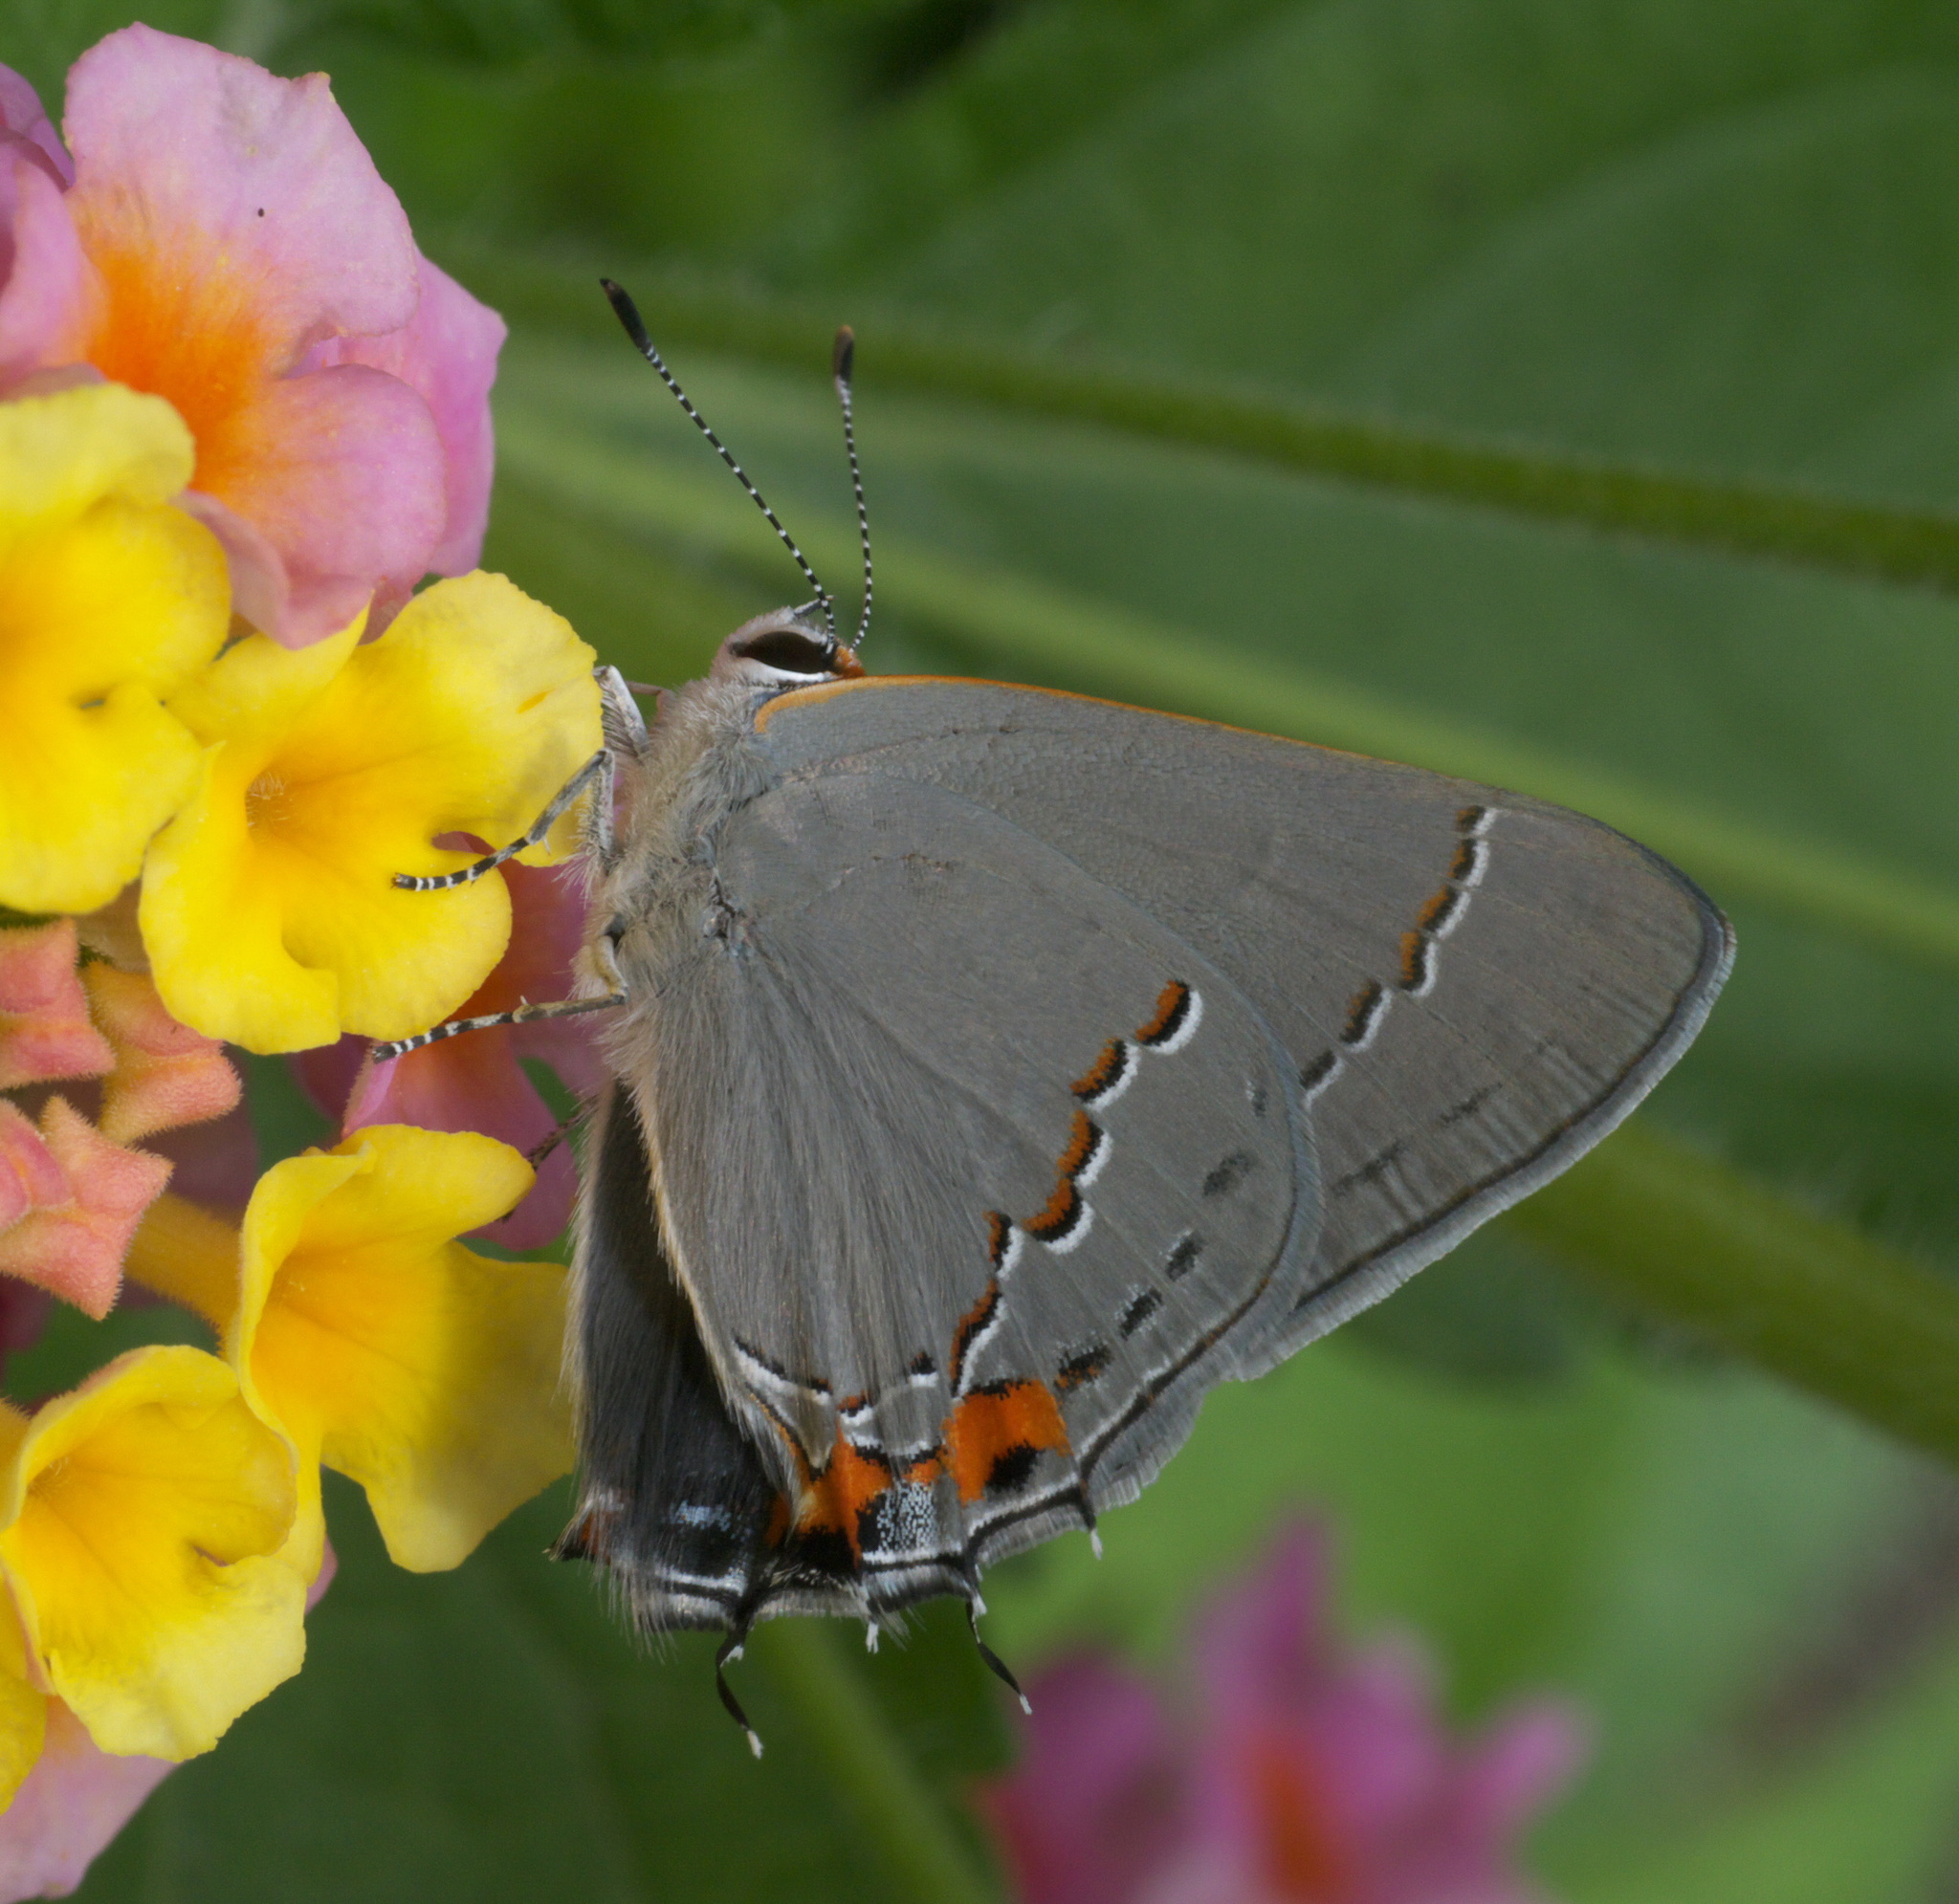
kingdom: Animalia
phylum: Arthropoda
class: Insecta
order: Lepidoptera
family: Lycaenidae
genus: Strymon
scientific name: Strymon melinus
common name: Gray hairstreak
